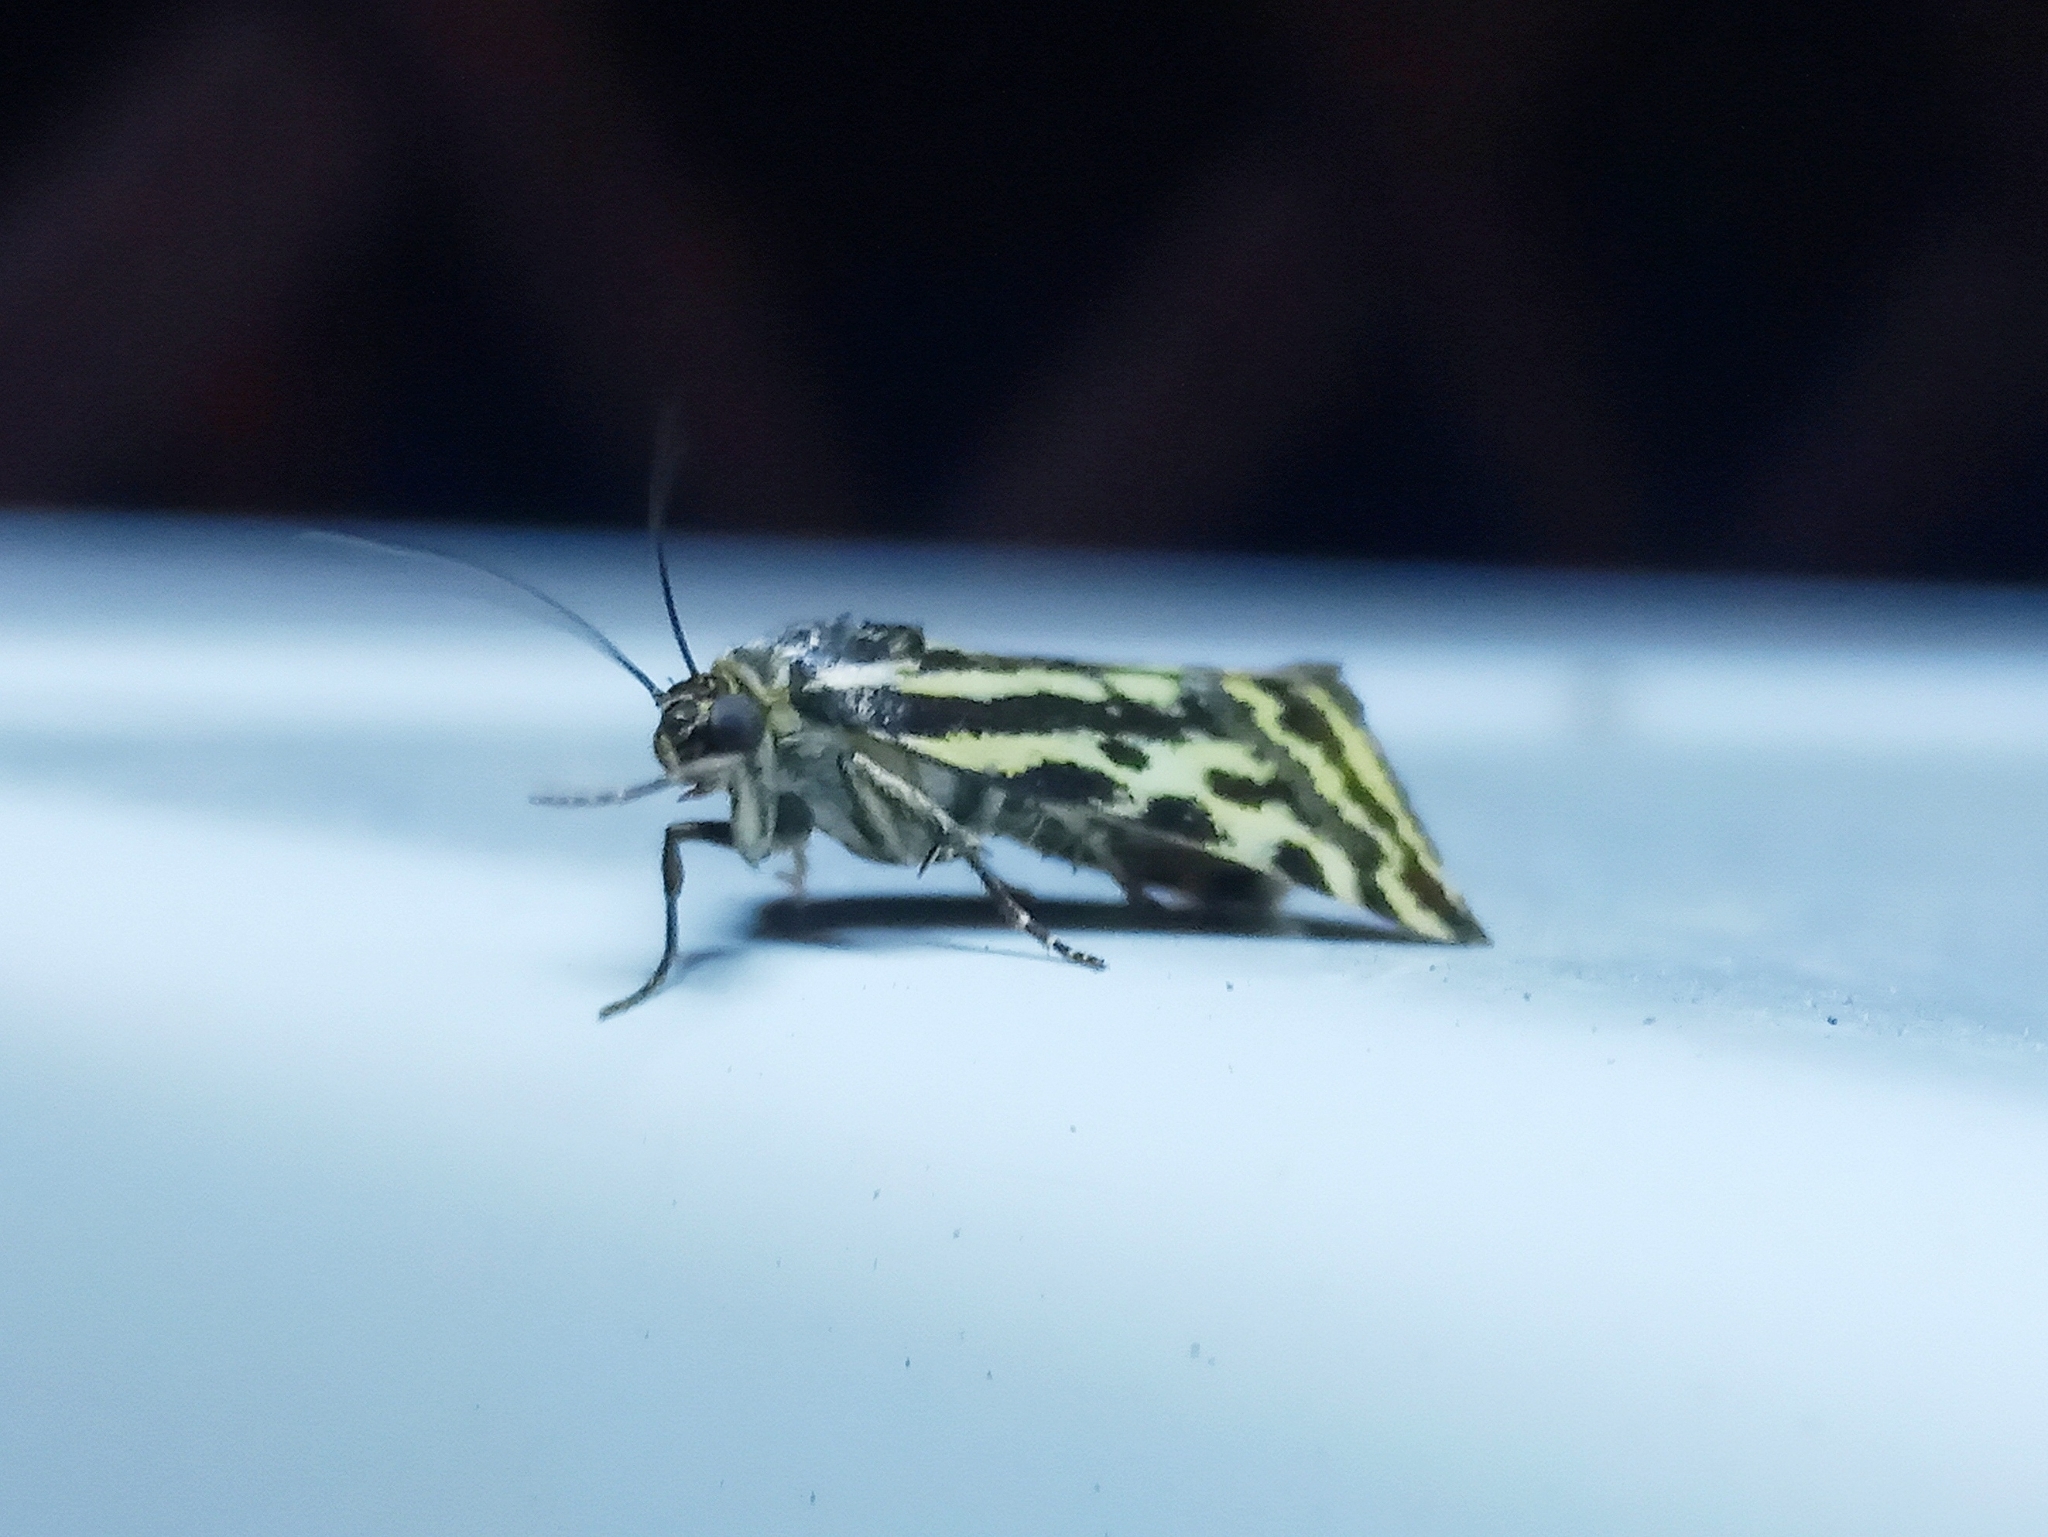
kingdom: Animalia
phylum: Arthropoda
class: Insecta
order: Lepidoptera
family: Noctuidae
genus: Acontia
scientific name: Acontia trabealis
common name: Spotted sulphur
